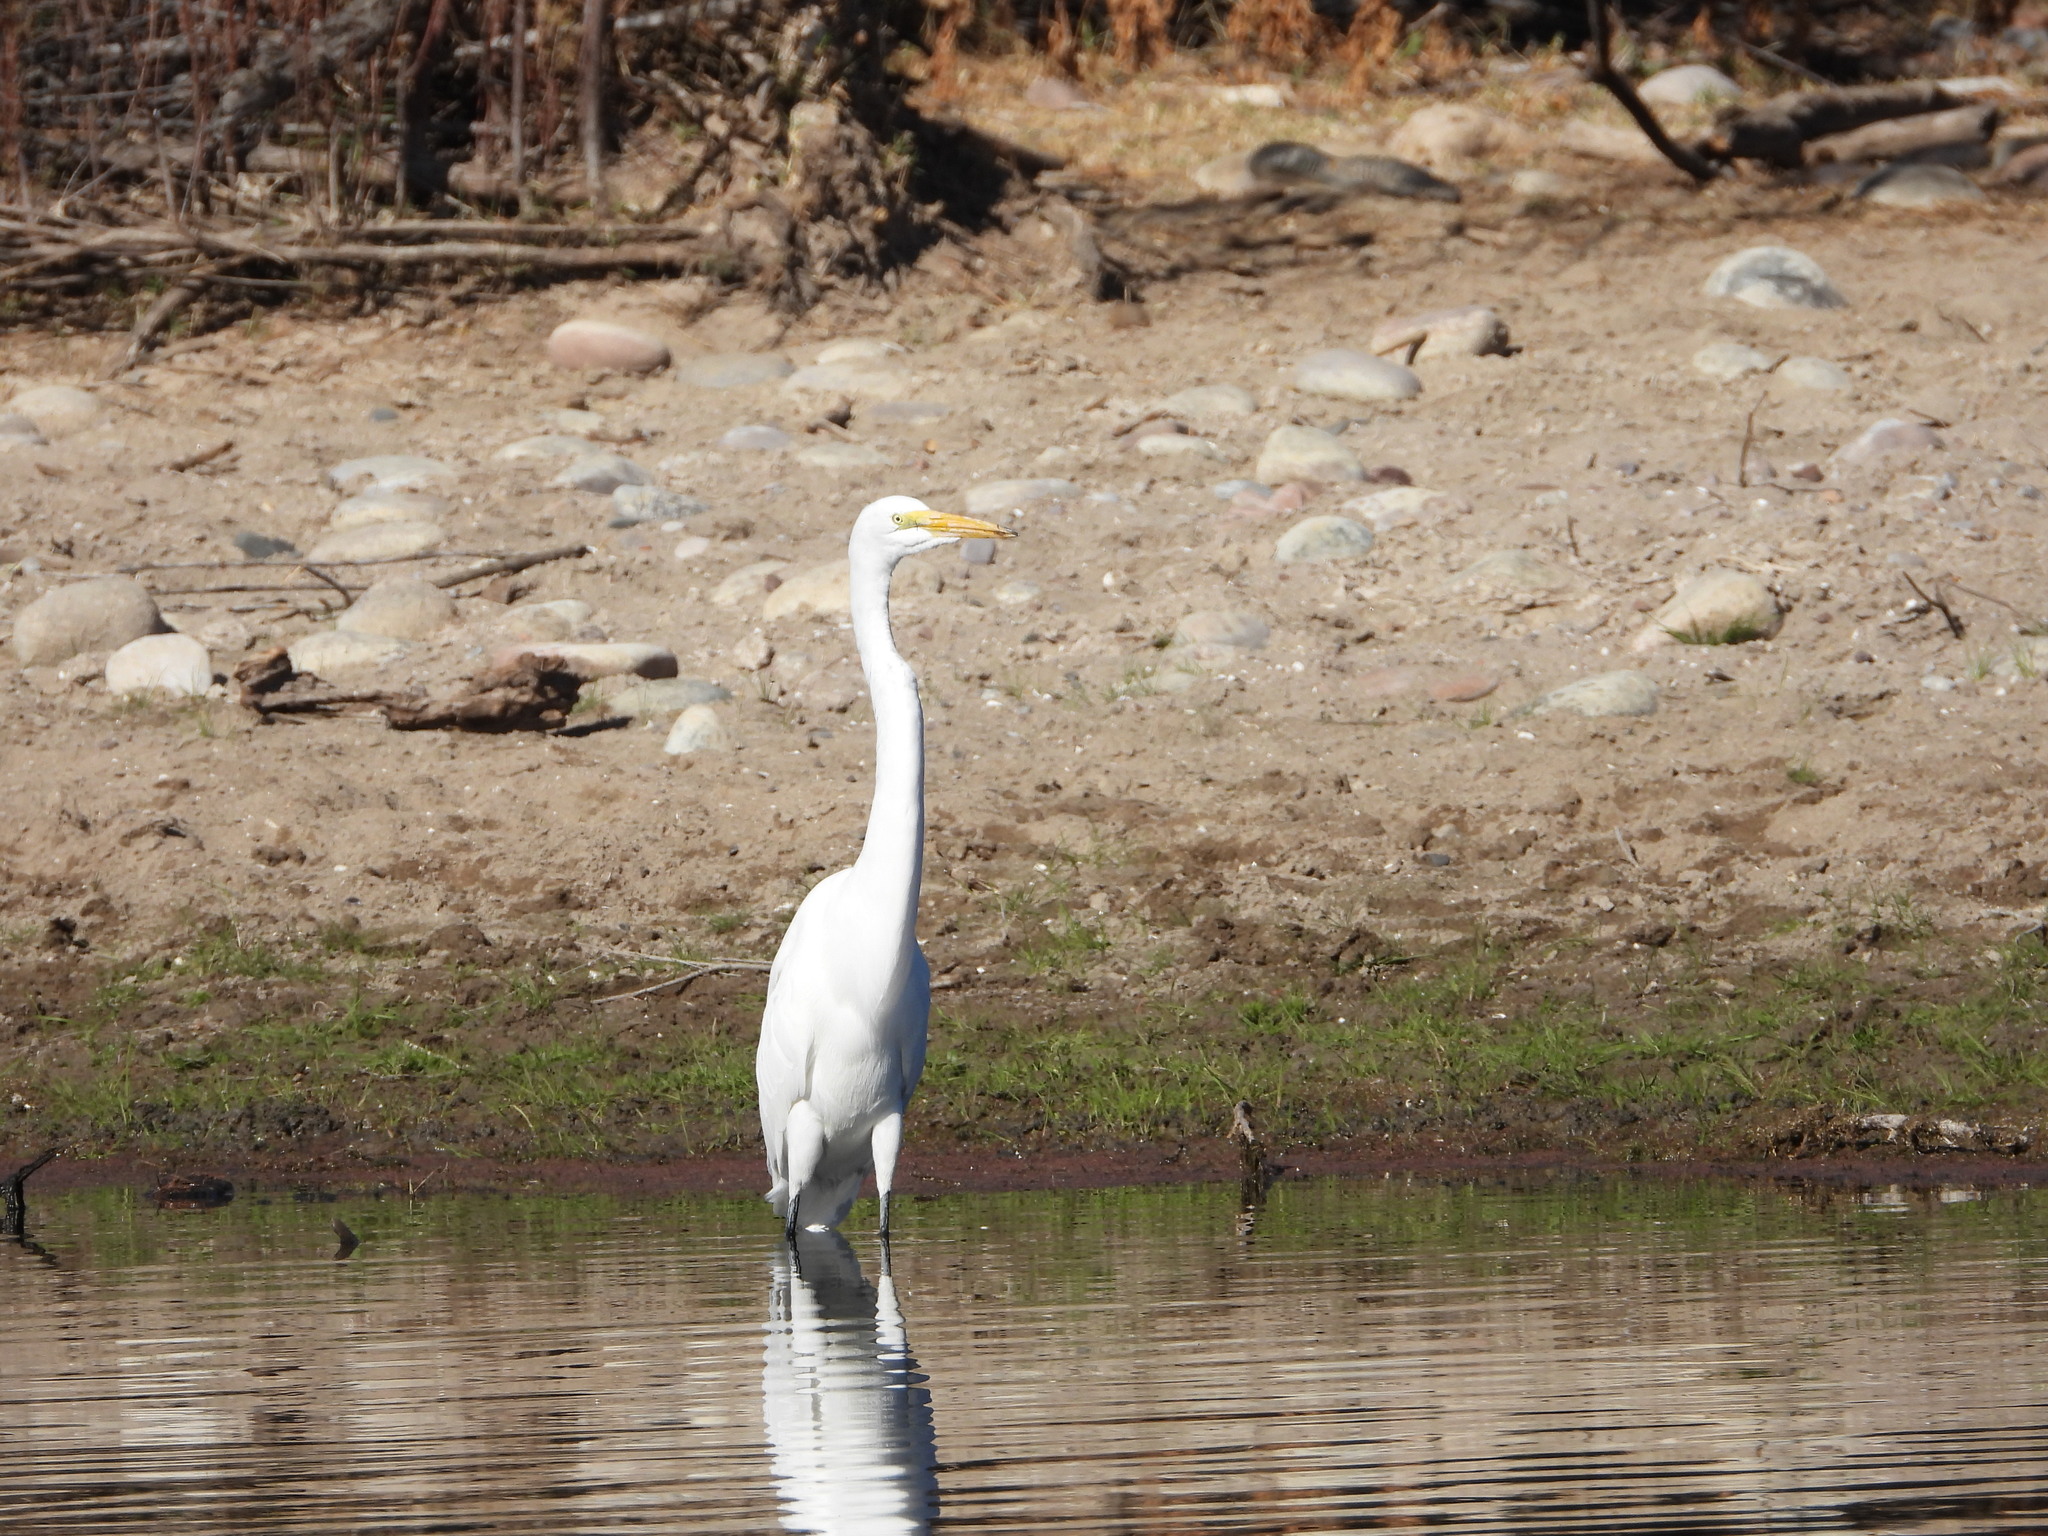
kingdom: Animalia
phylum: Chordata
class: Aves
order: Pelecaniformes
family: Ardeidae
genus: Ardea
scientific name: Ardea alba
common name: Great egret
